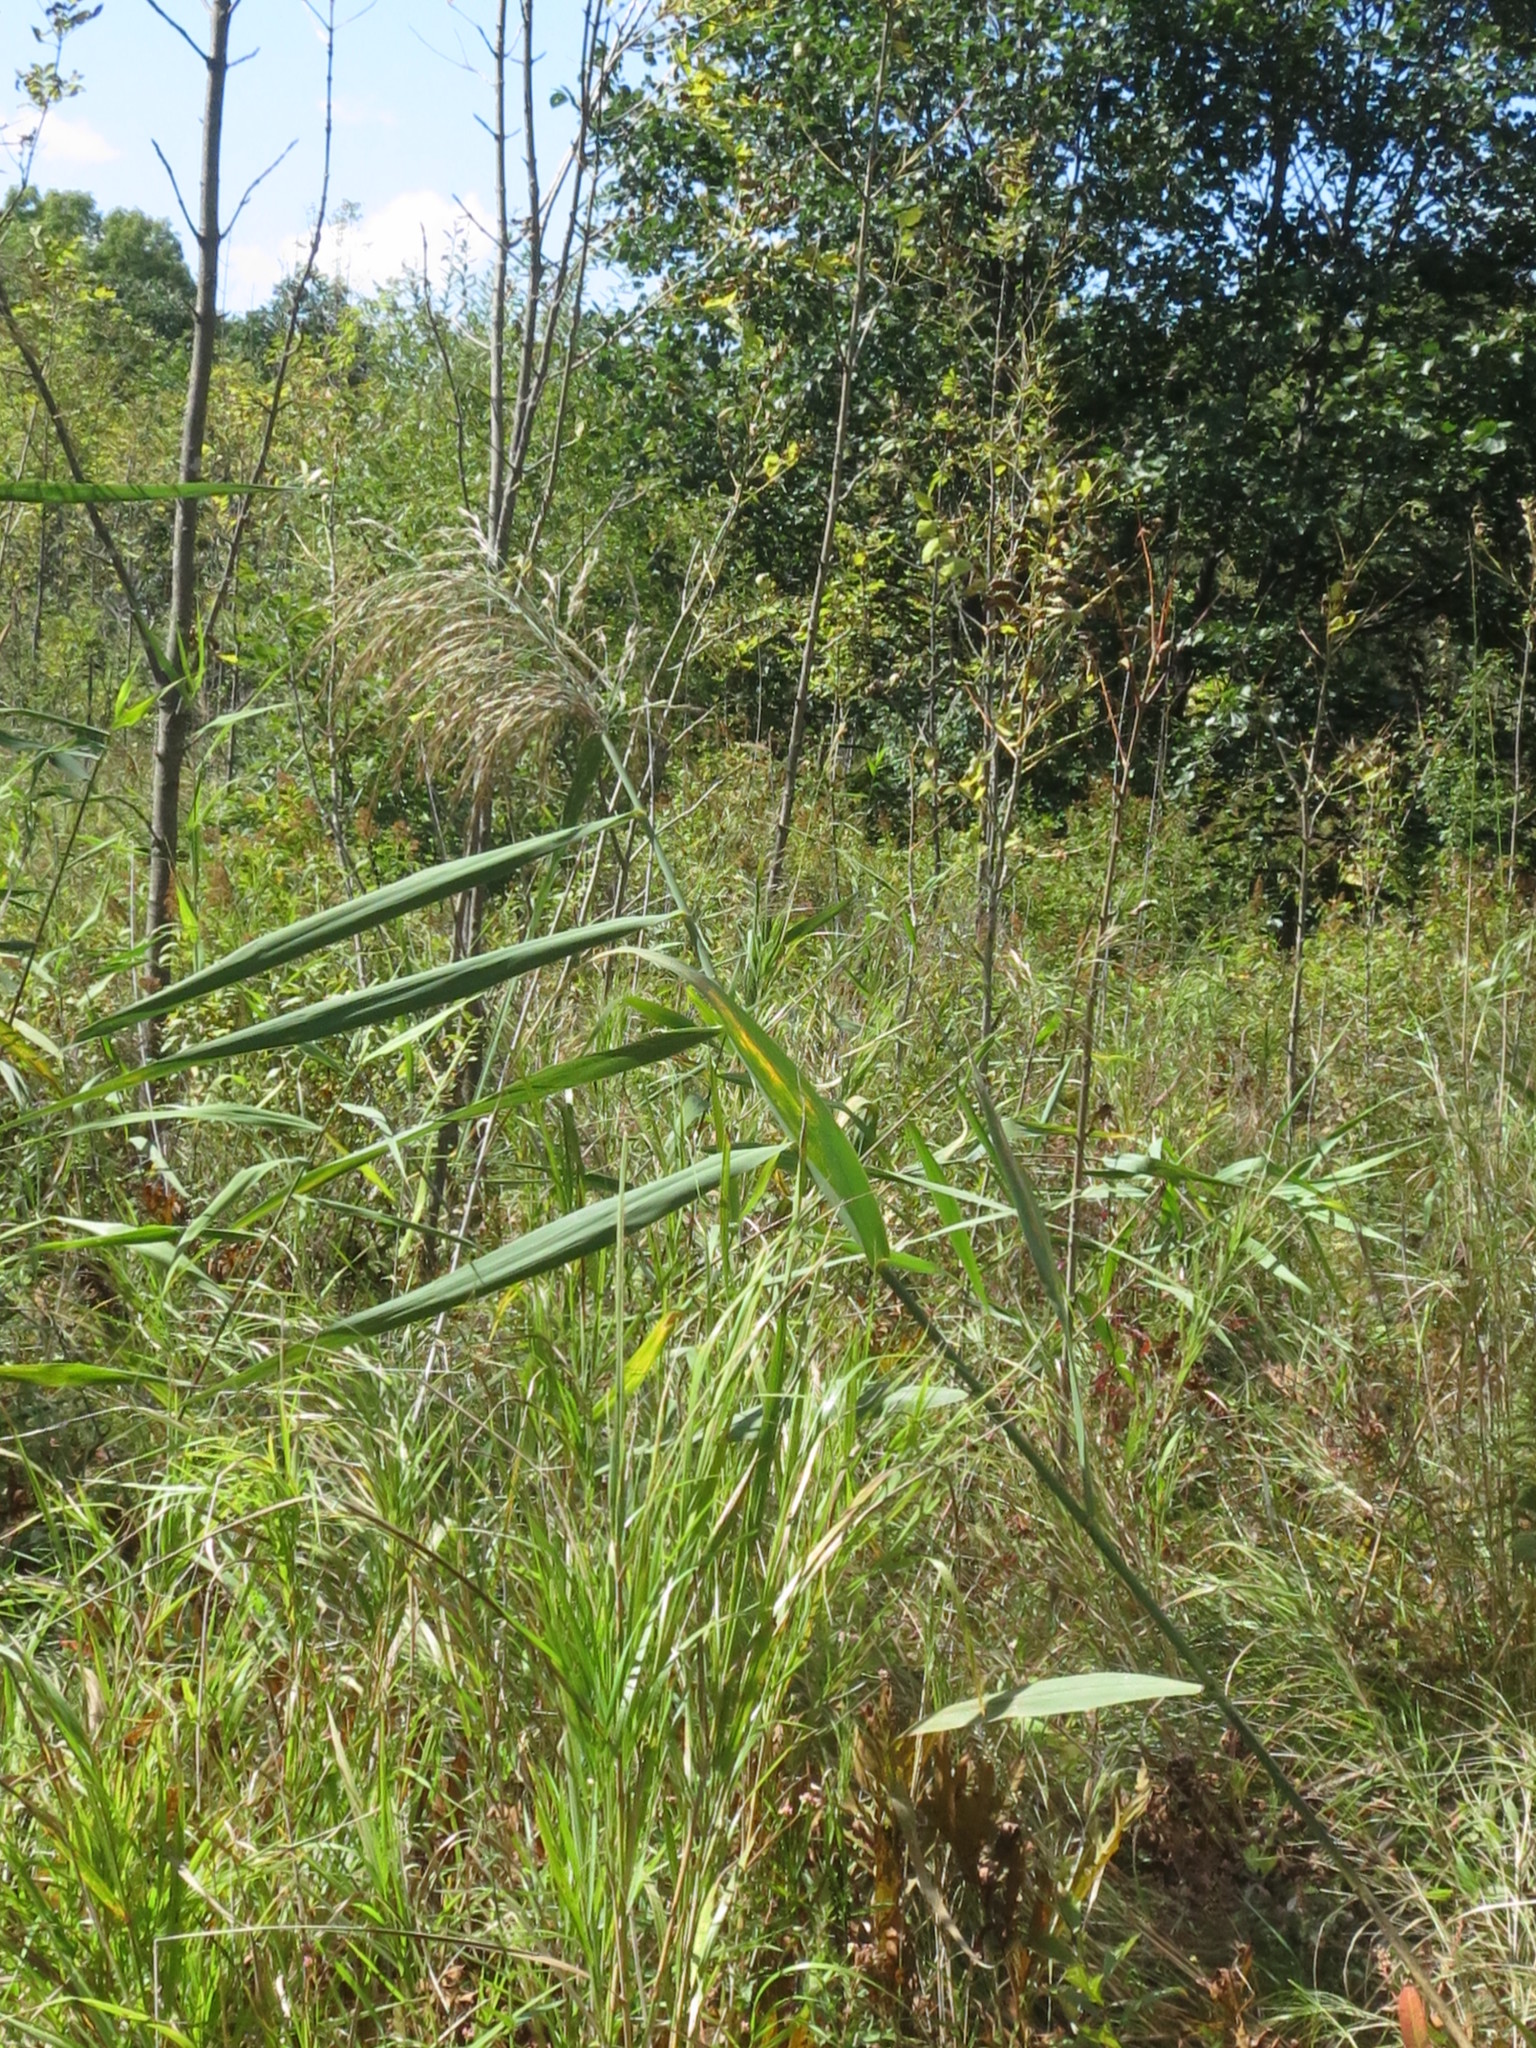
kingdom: Plantae
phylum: Tracheophyta
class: Liliopsida
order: Poales
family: Poaceae
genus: Phragmites
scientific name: Phragmites australis
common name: Common reed
